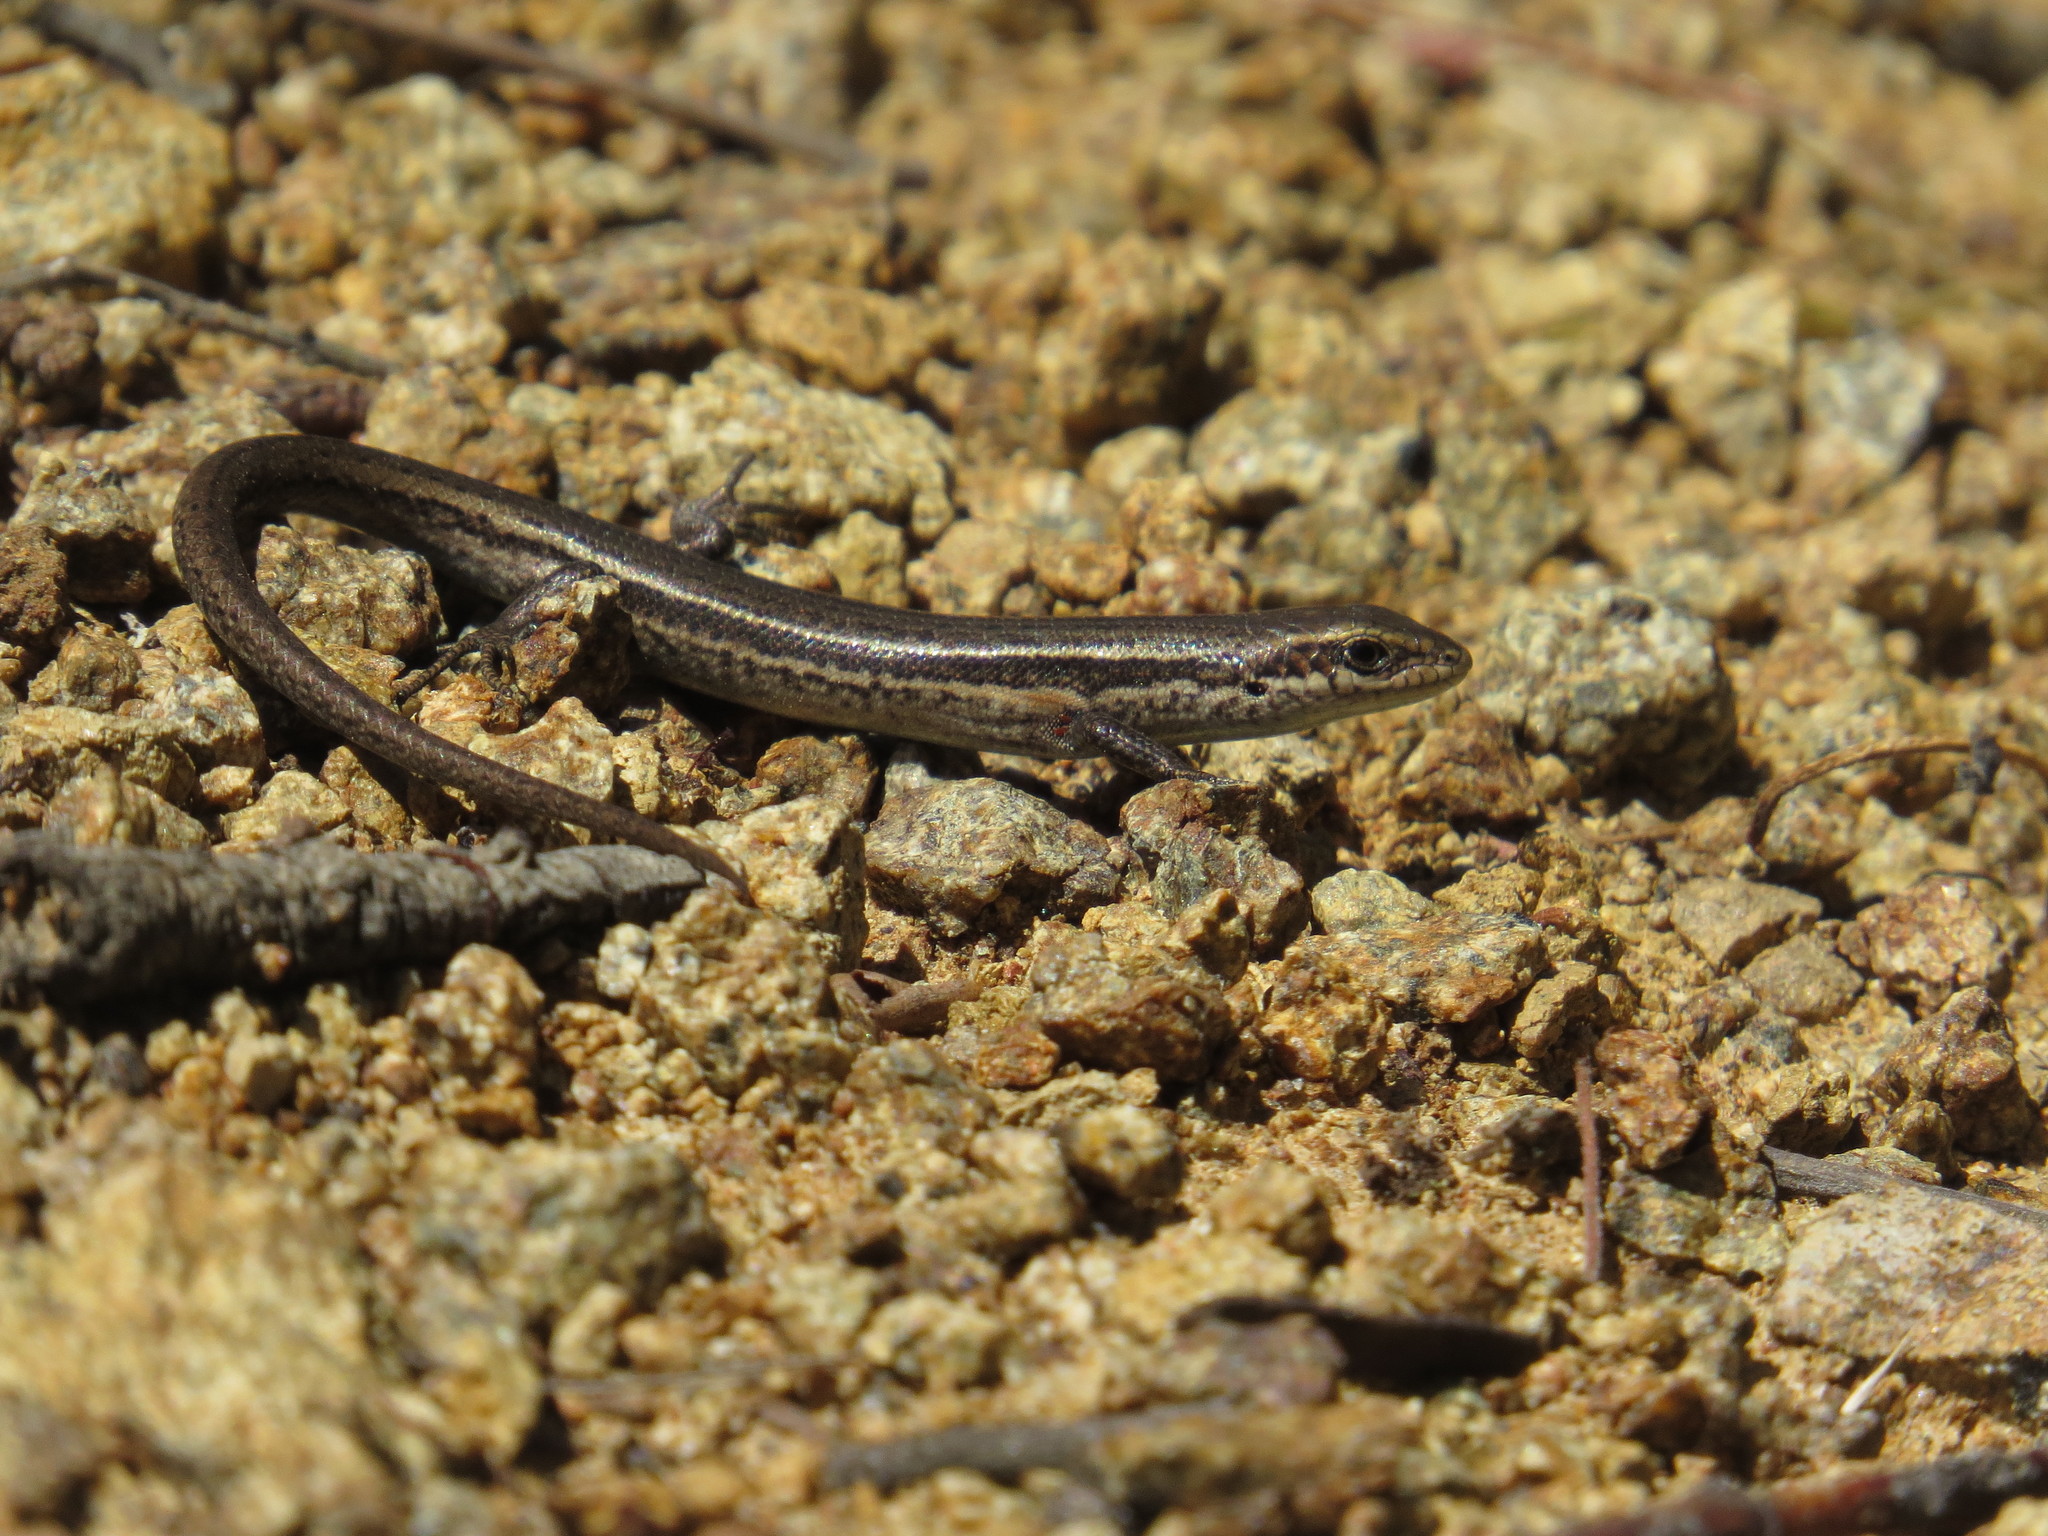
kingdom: Animalia
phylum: Chordata
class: Squamata
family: Scincidae
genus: Pseudemoia
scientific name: Pseudemoia entrecasteauxii
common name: Entrecasteaux's skink
